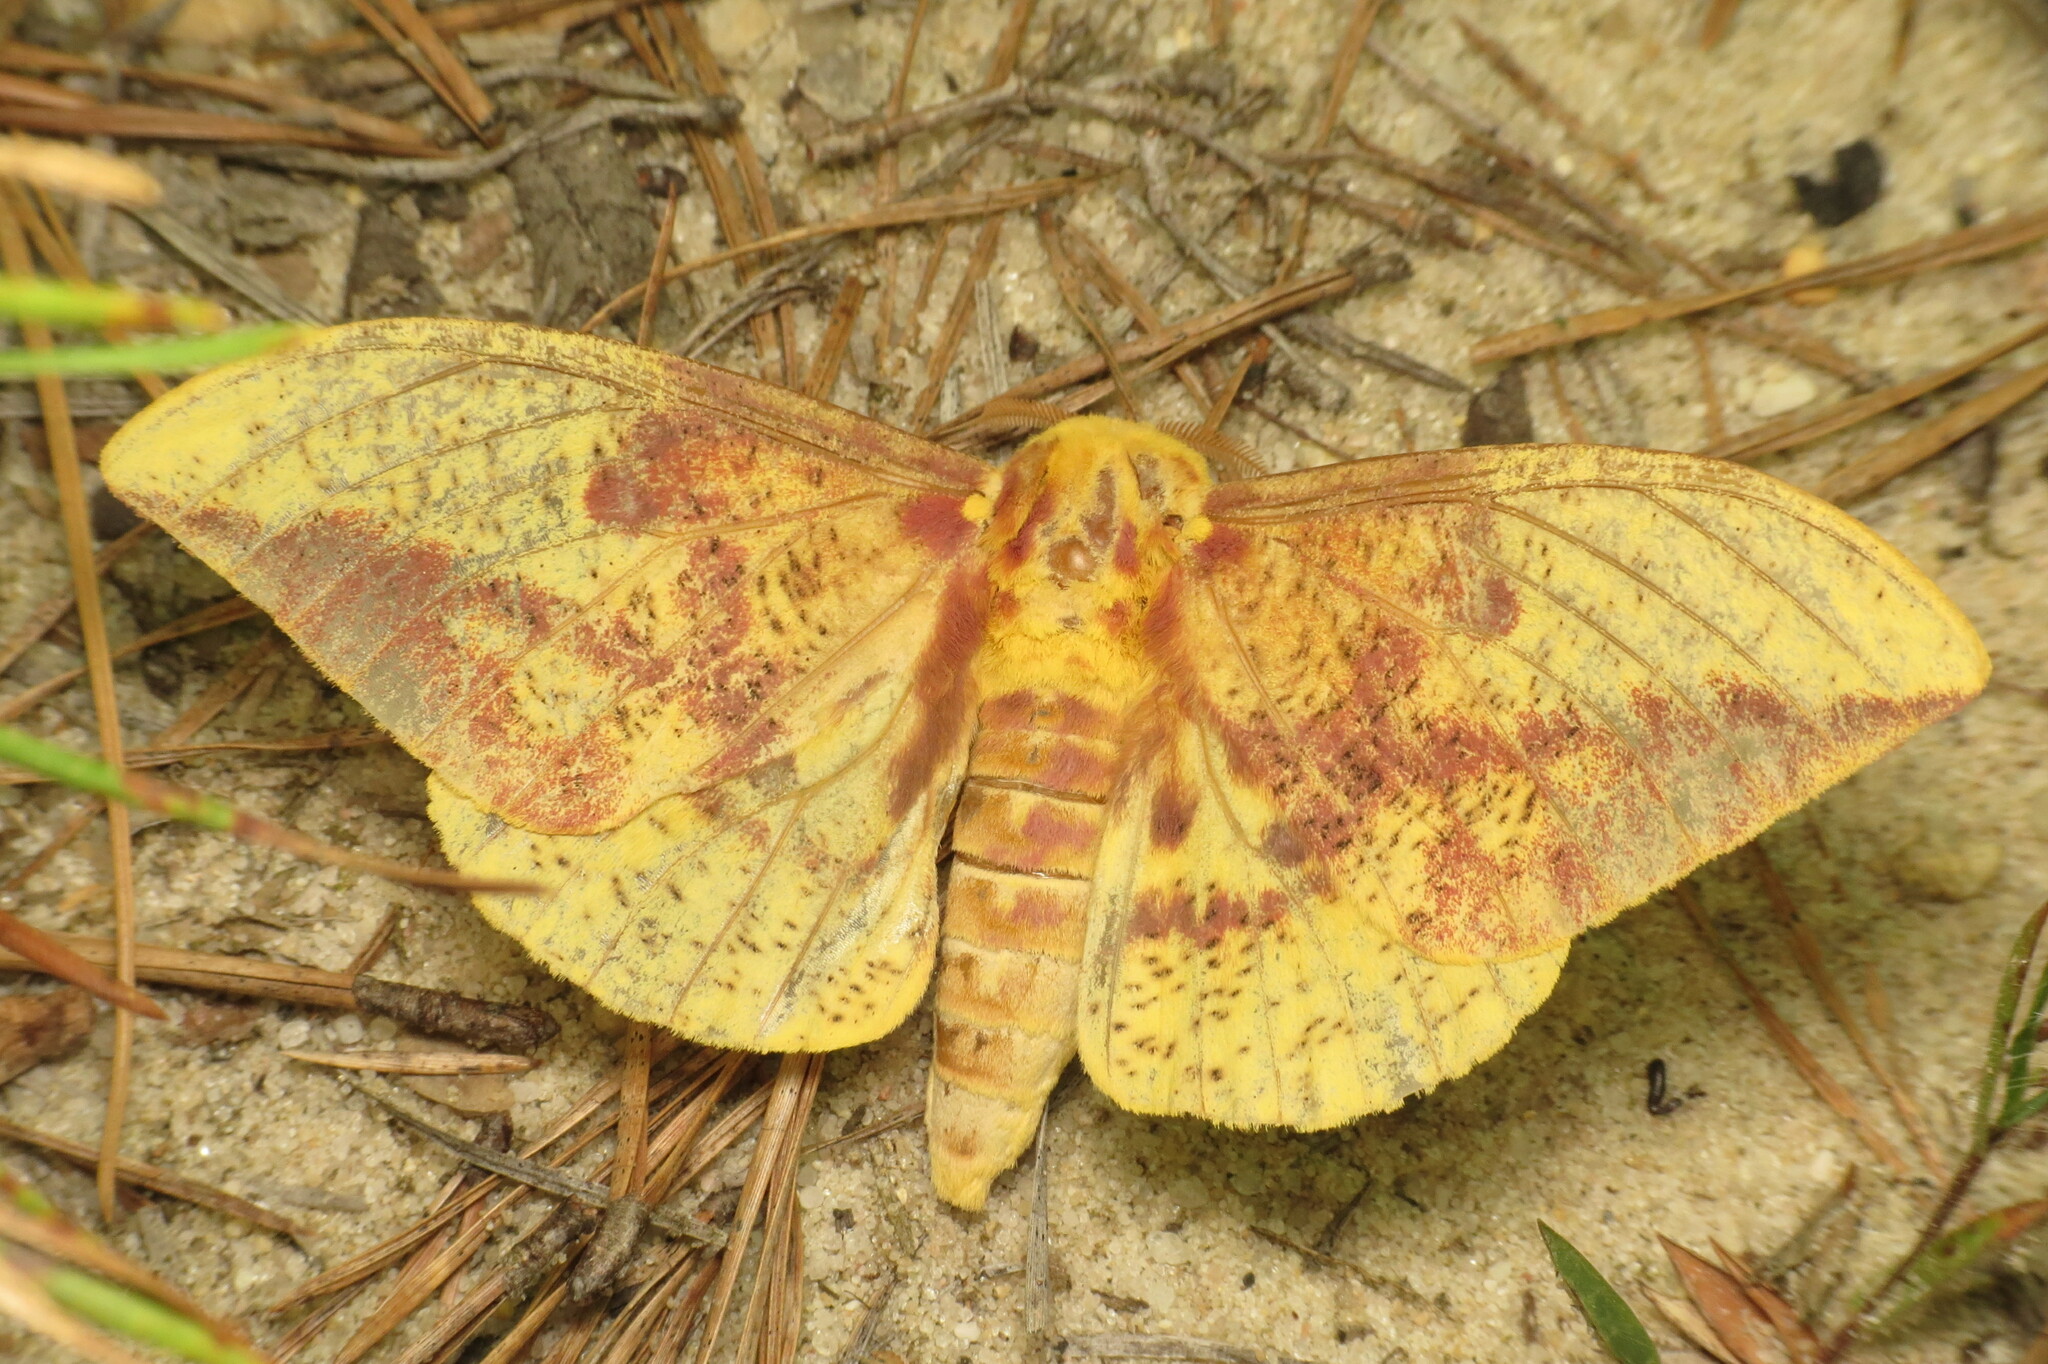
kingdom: Animalia
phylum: Arthropoda
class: Insecta
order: Lepidoptera
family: Saturniidae
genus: Eacles
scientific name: Eacles imperialis
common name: Imperial moth
